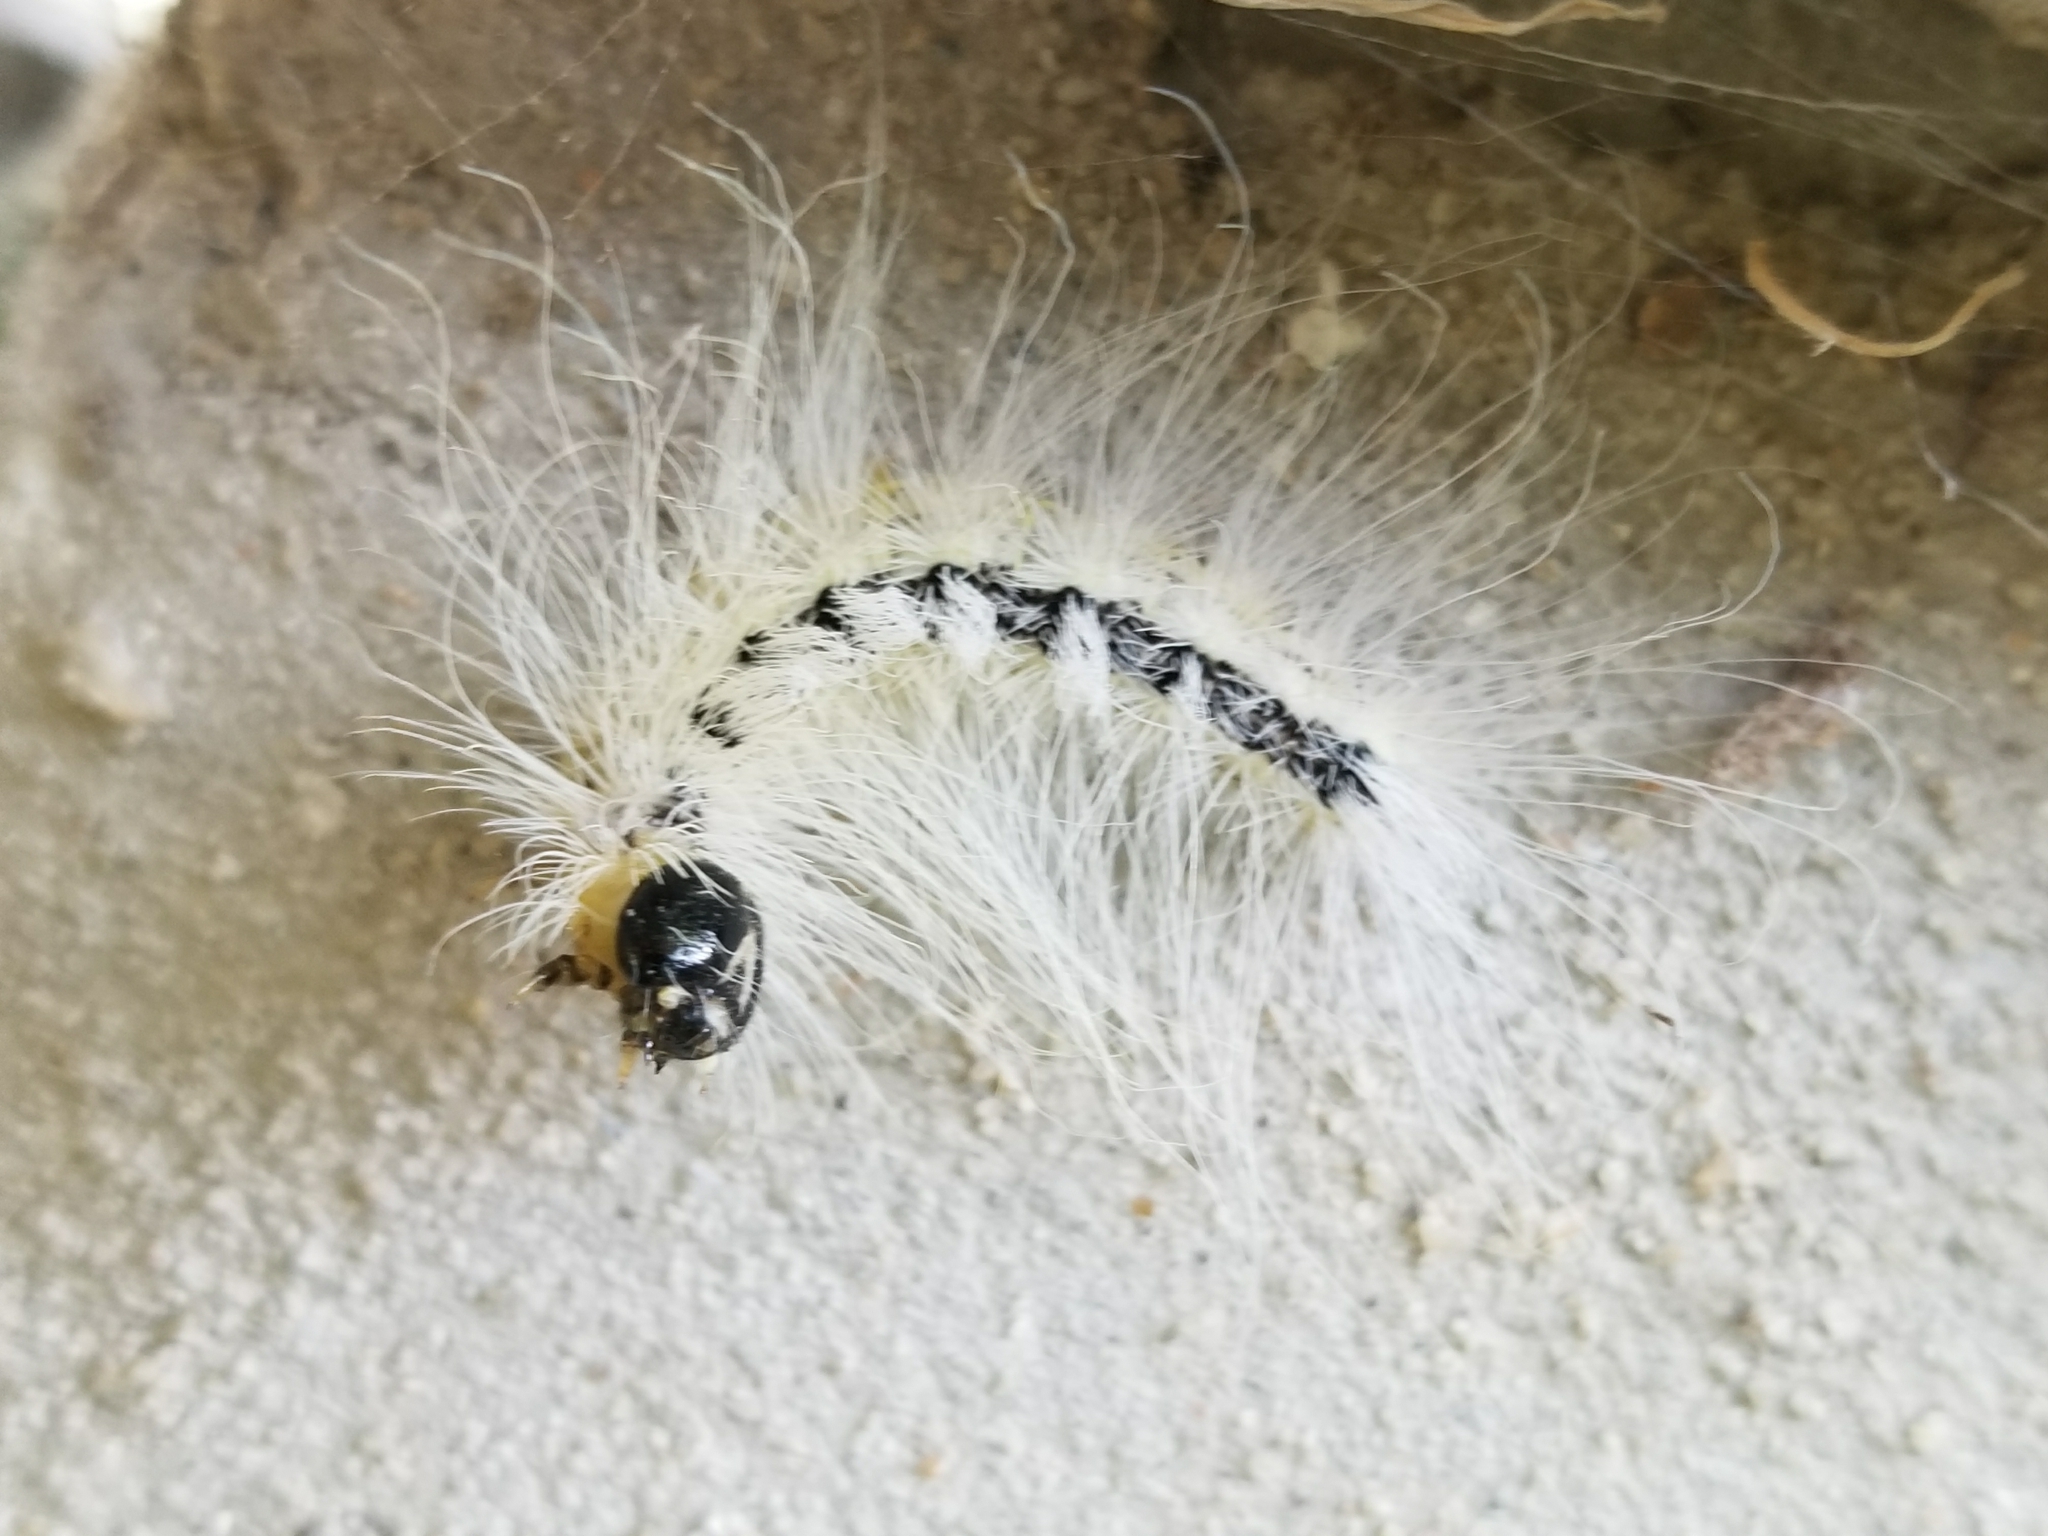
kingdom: Animalia
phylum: Arthropoda
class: Insecta
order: Lepidoptera
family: Noctuidae
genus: Acronicta
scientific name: Acronicta rubricoma
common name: Hackberry dagger
